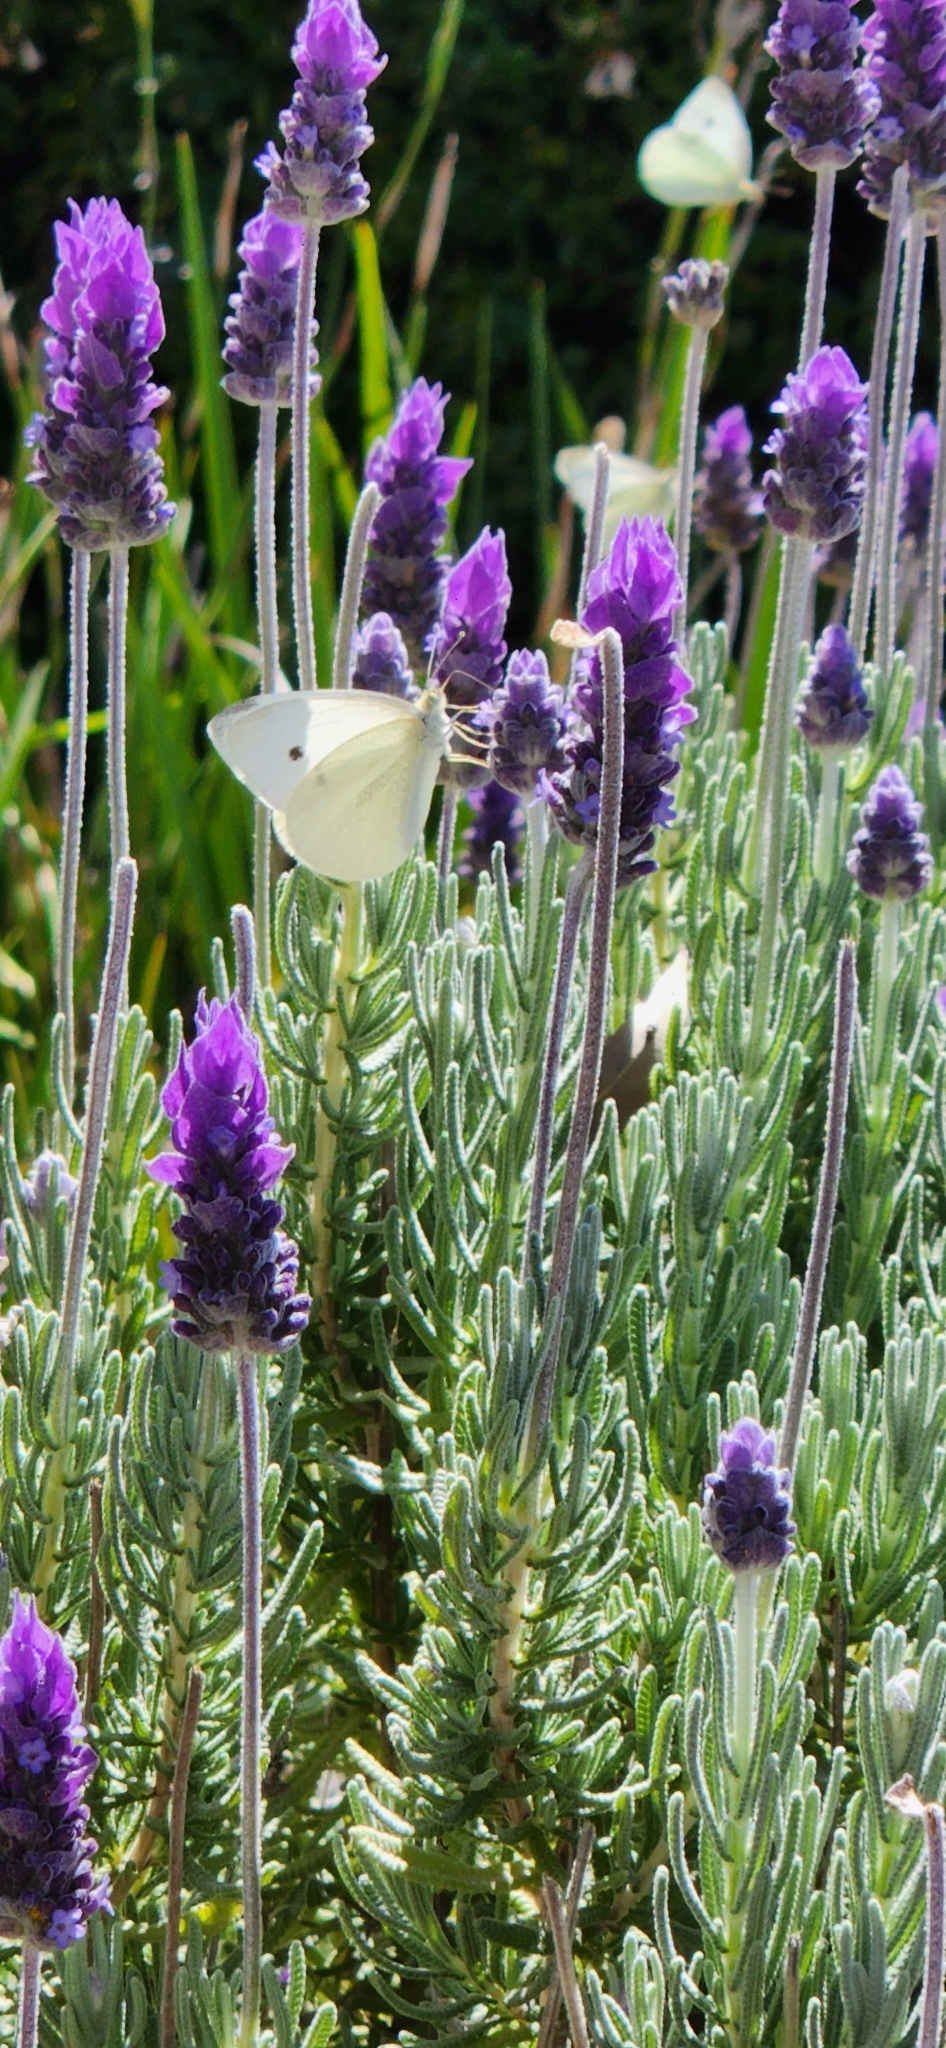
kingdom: Animalia
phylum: Arthropoda
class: Insecta
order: Lepidoptera
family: Pieridae
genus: Pieris
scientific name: Pieris rapae
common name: Small white
